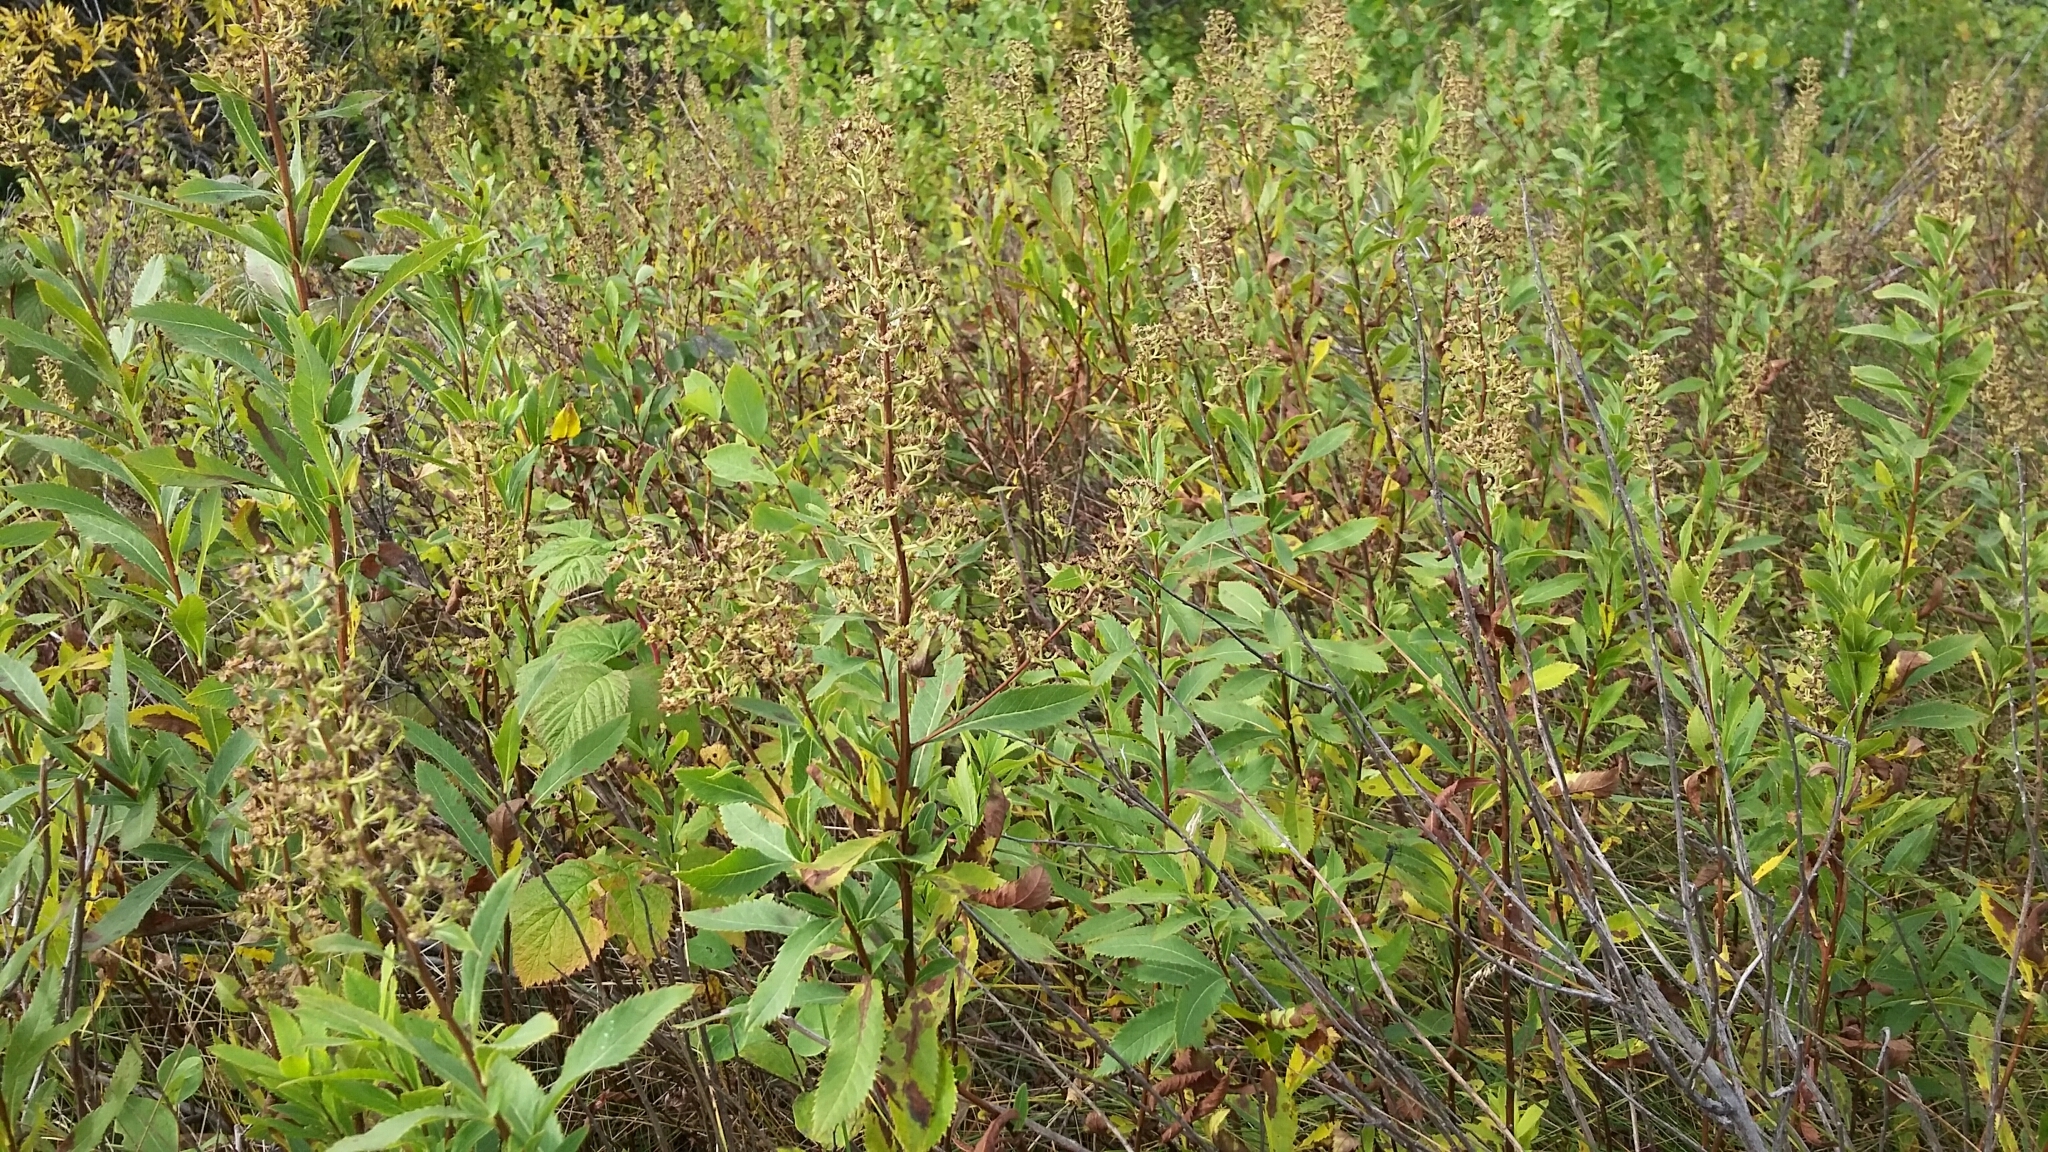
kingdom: Plantae
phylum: Tracheophyta
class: Magnoliopsida
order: Rosales
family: Rosaceae
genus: Spiraea
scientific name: Spiraea alba
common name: Pale bridewort
